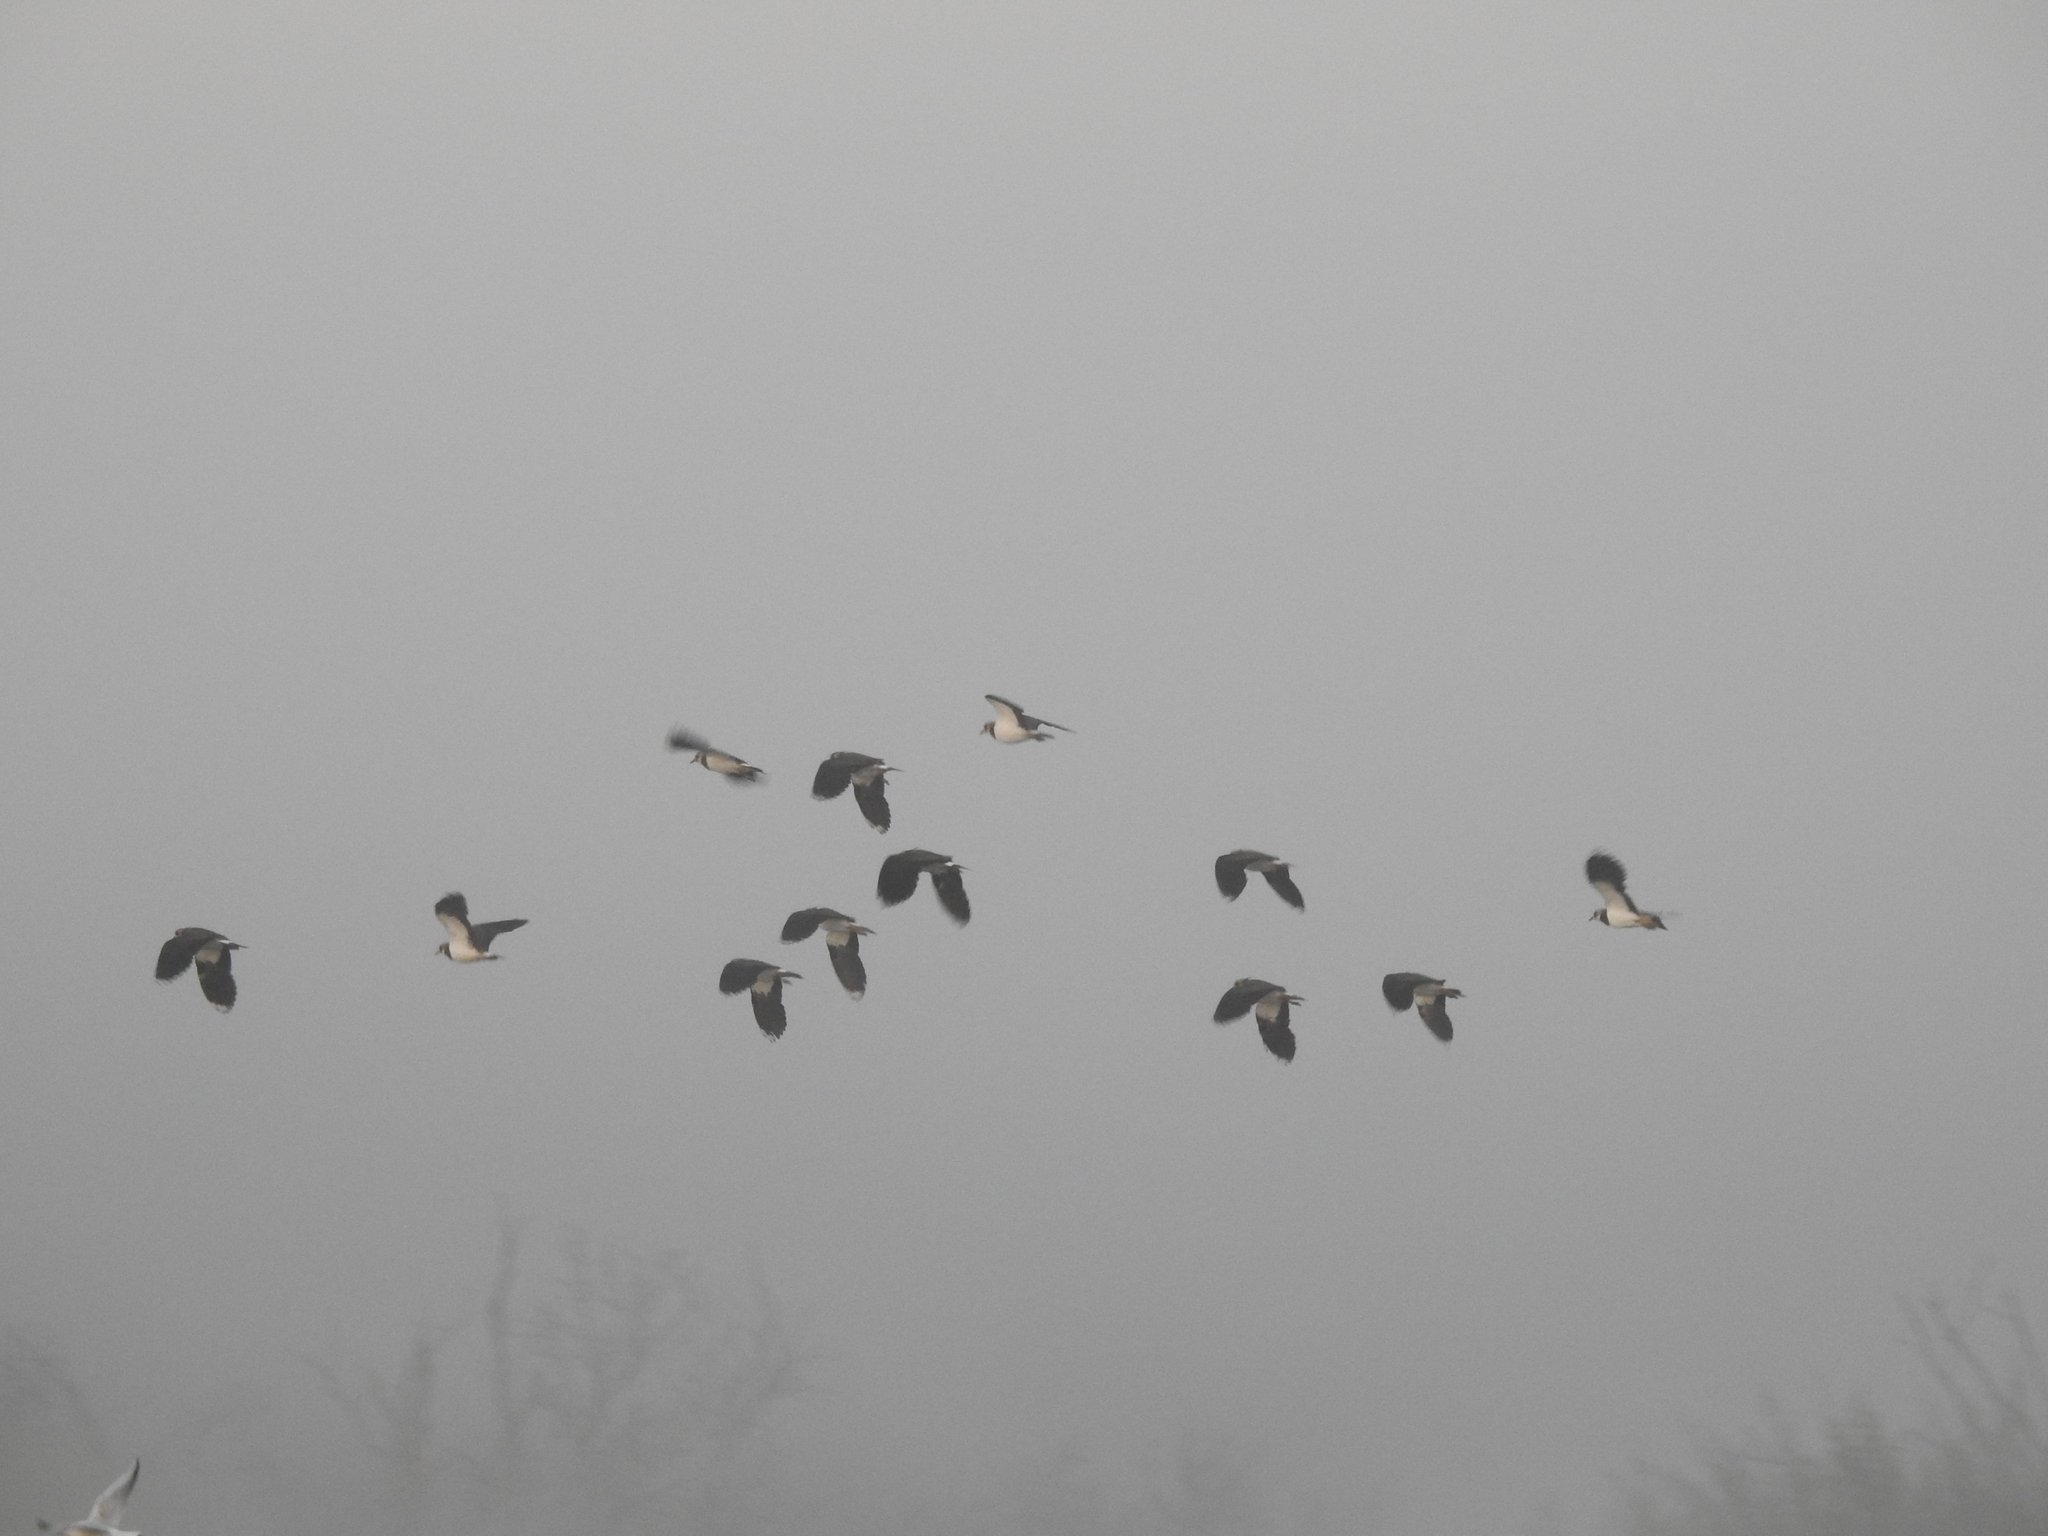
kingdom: Animalia
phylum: Chordata
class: Aves
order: Charadriiformes
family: Charadriidae
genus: Vanellus
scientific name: Vanellus vanellus
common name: Northern lapwing
